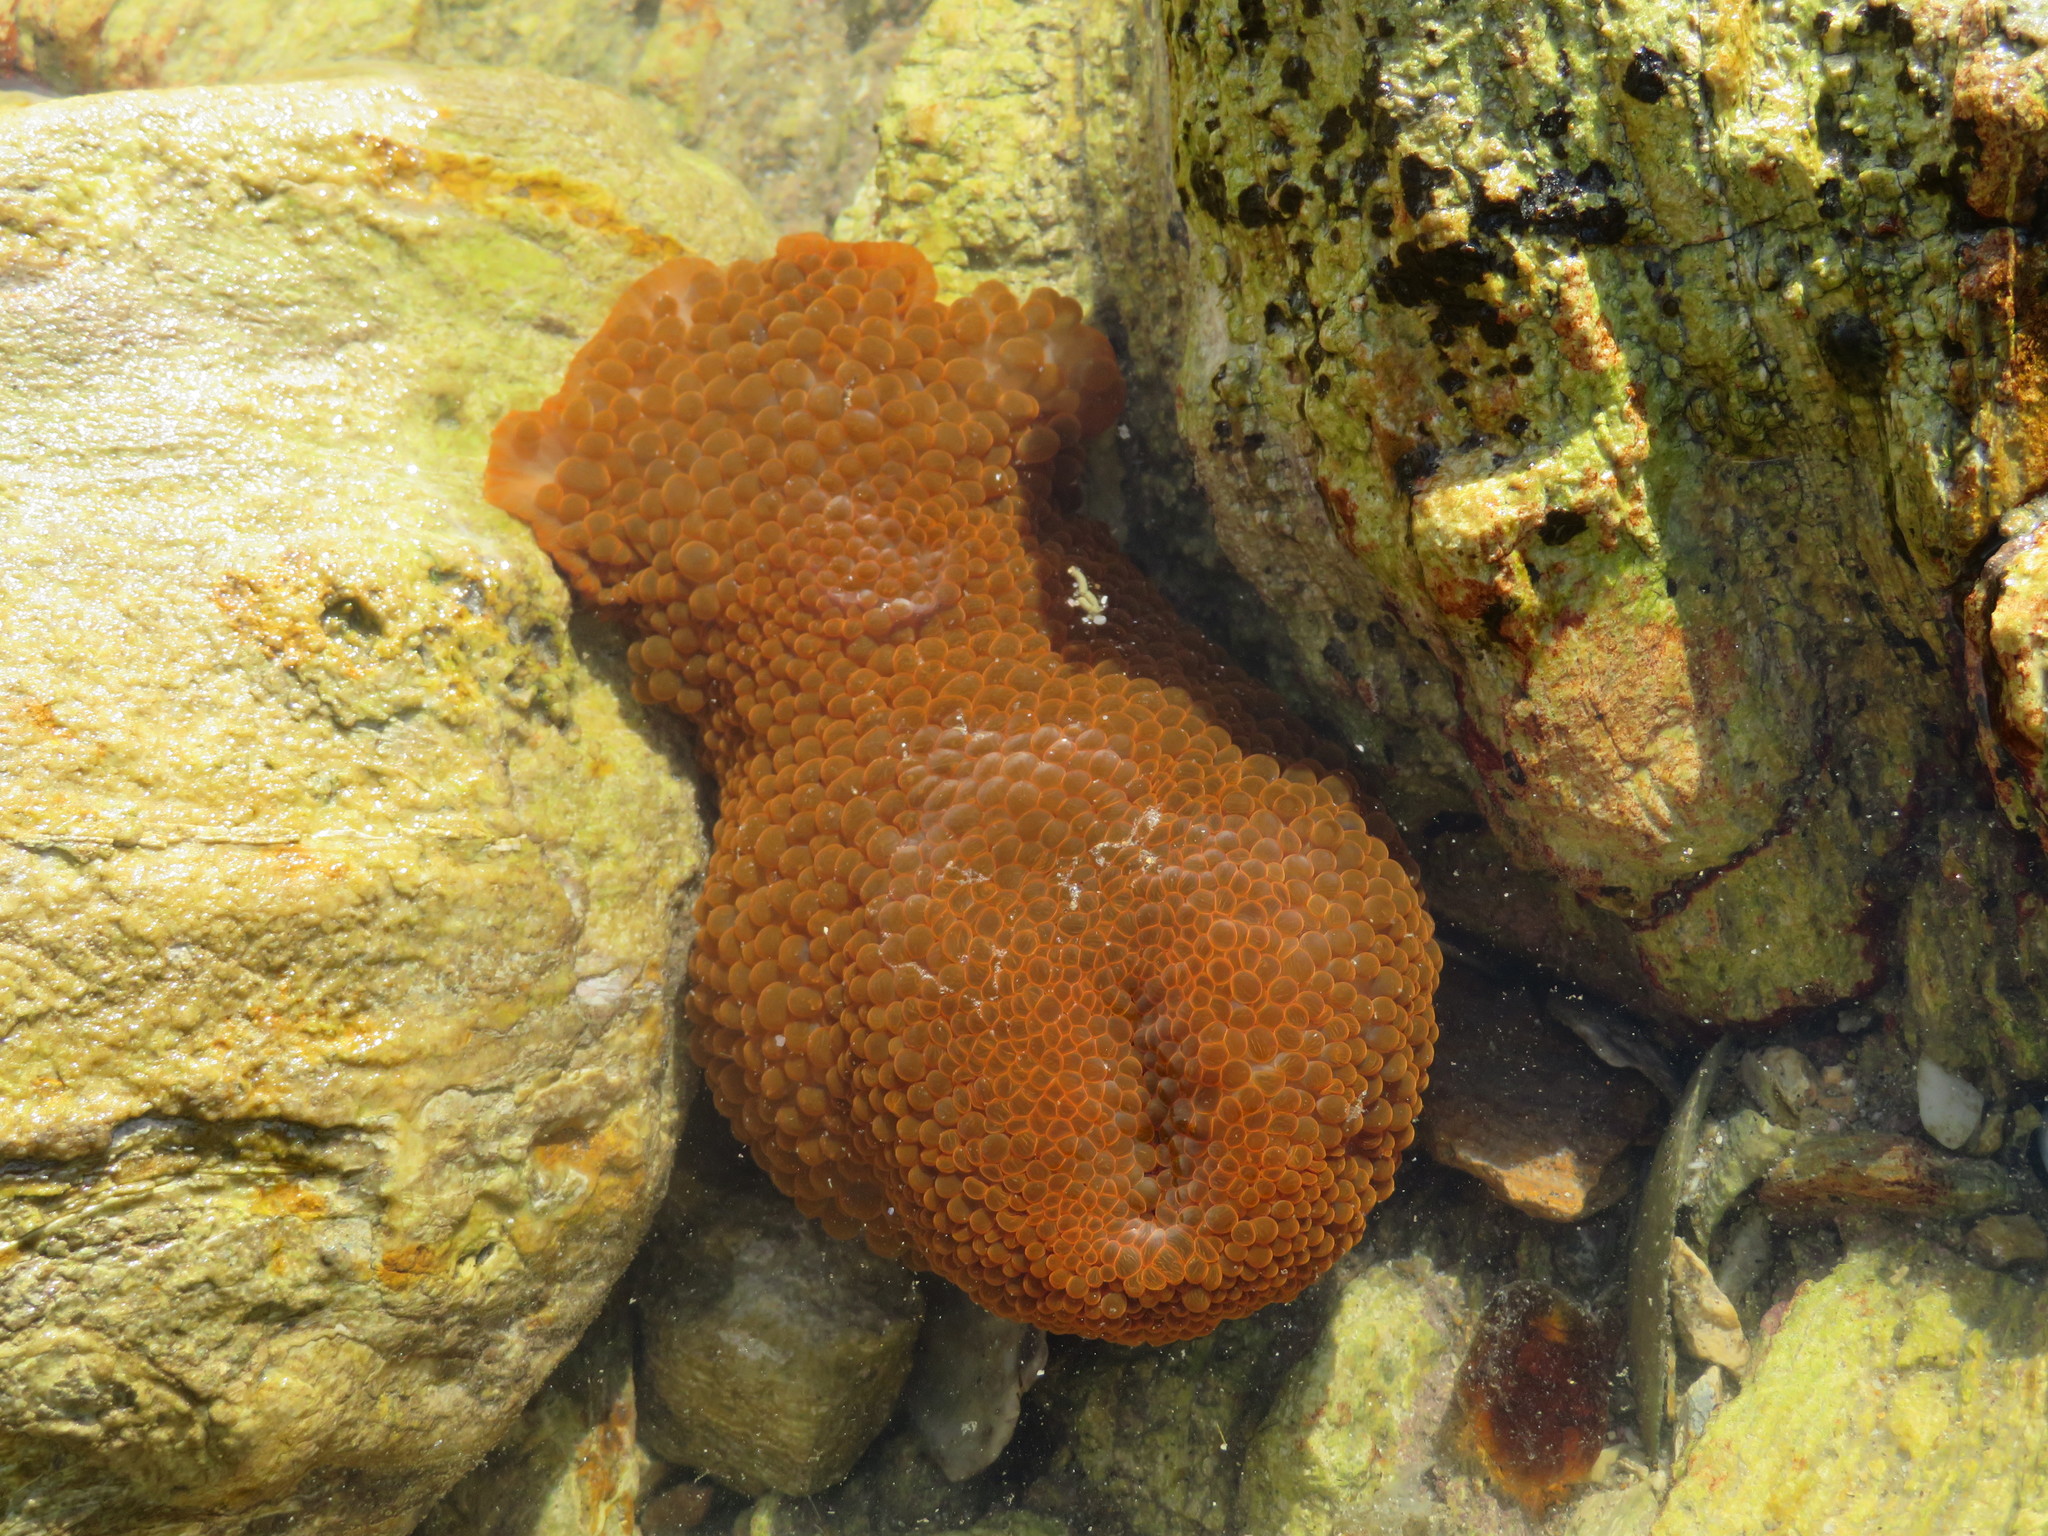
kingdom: Animalia
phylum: Cnidaria
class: Anthozoa
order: Actiniaria
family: Actiniidae
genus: Phlyctenactis
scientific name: Phlyctenactis tuberculosa
